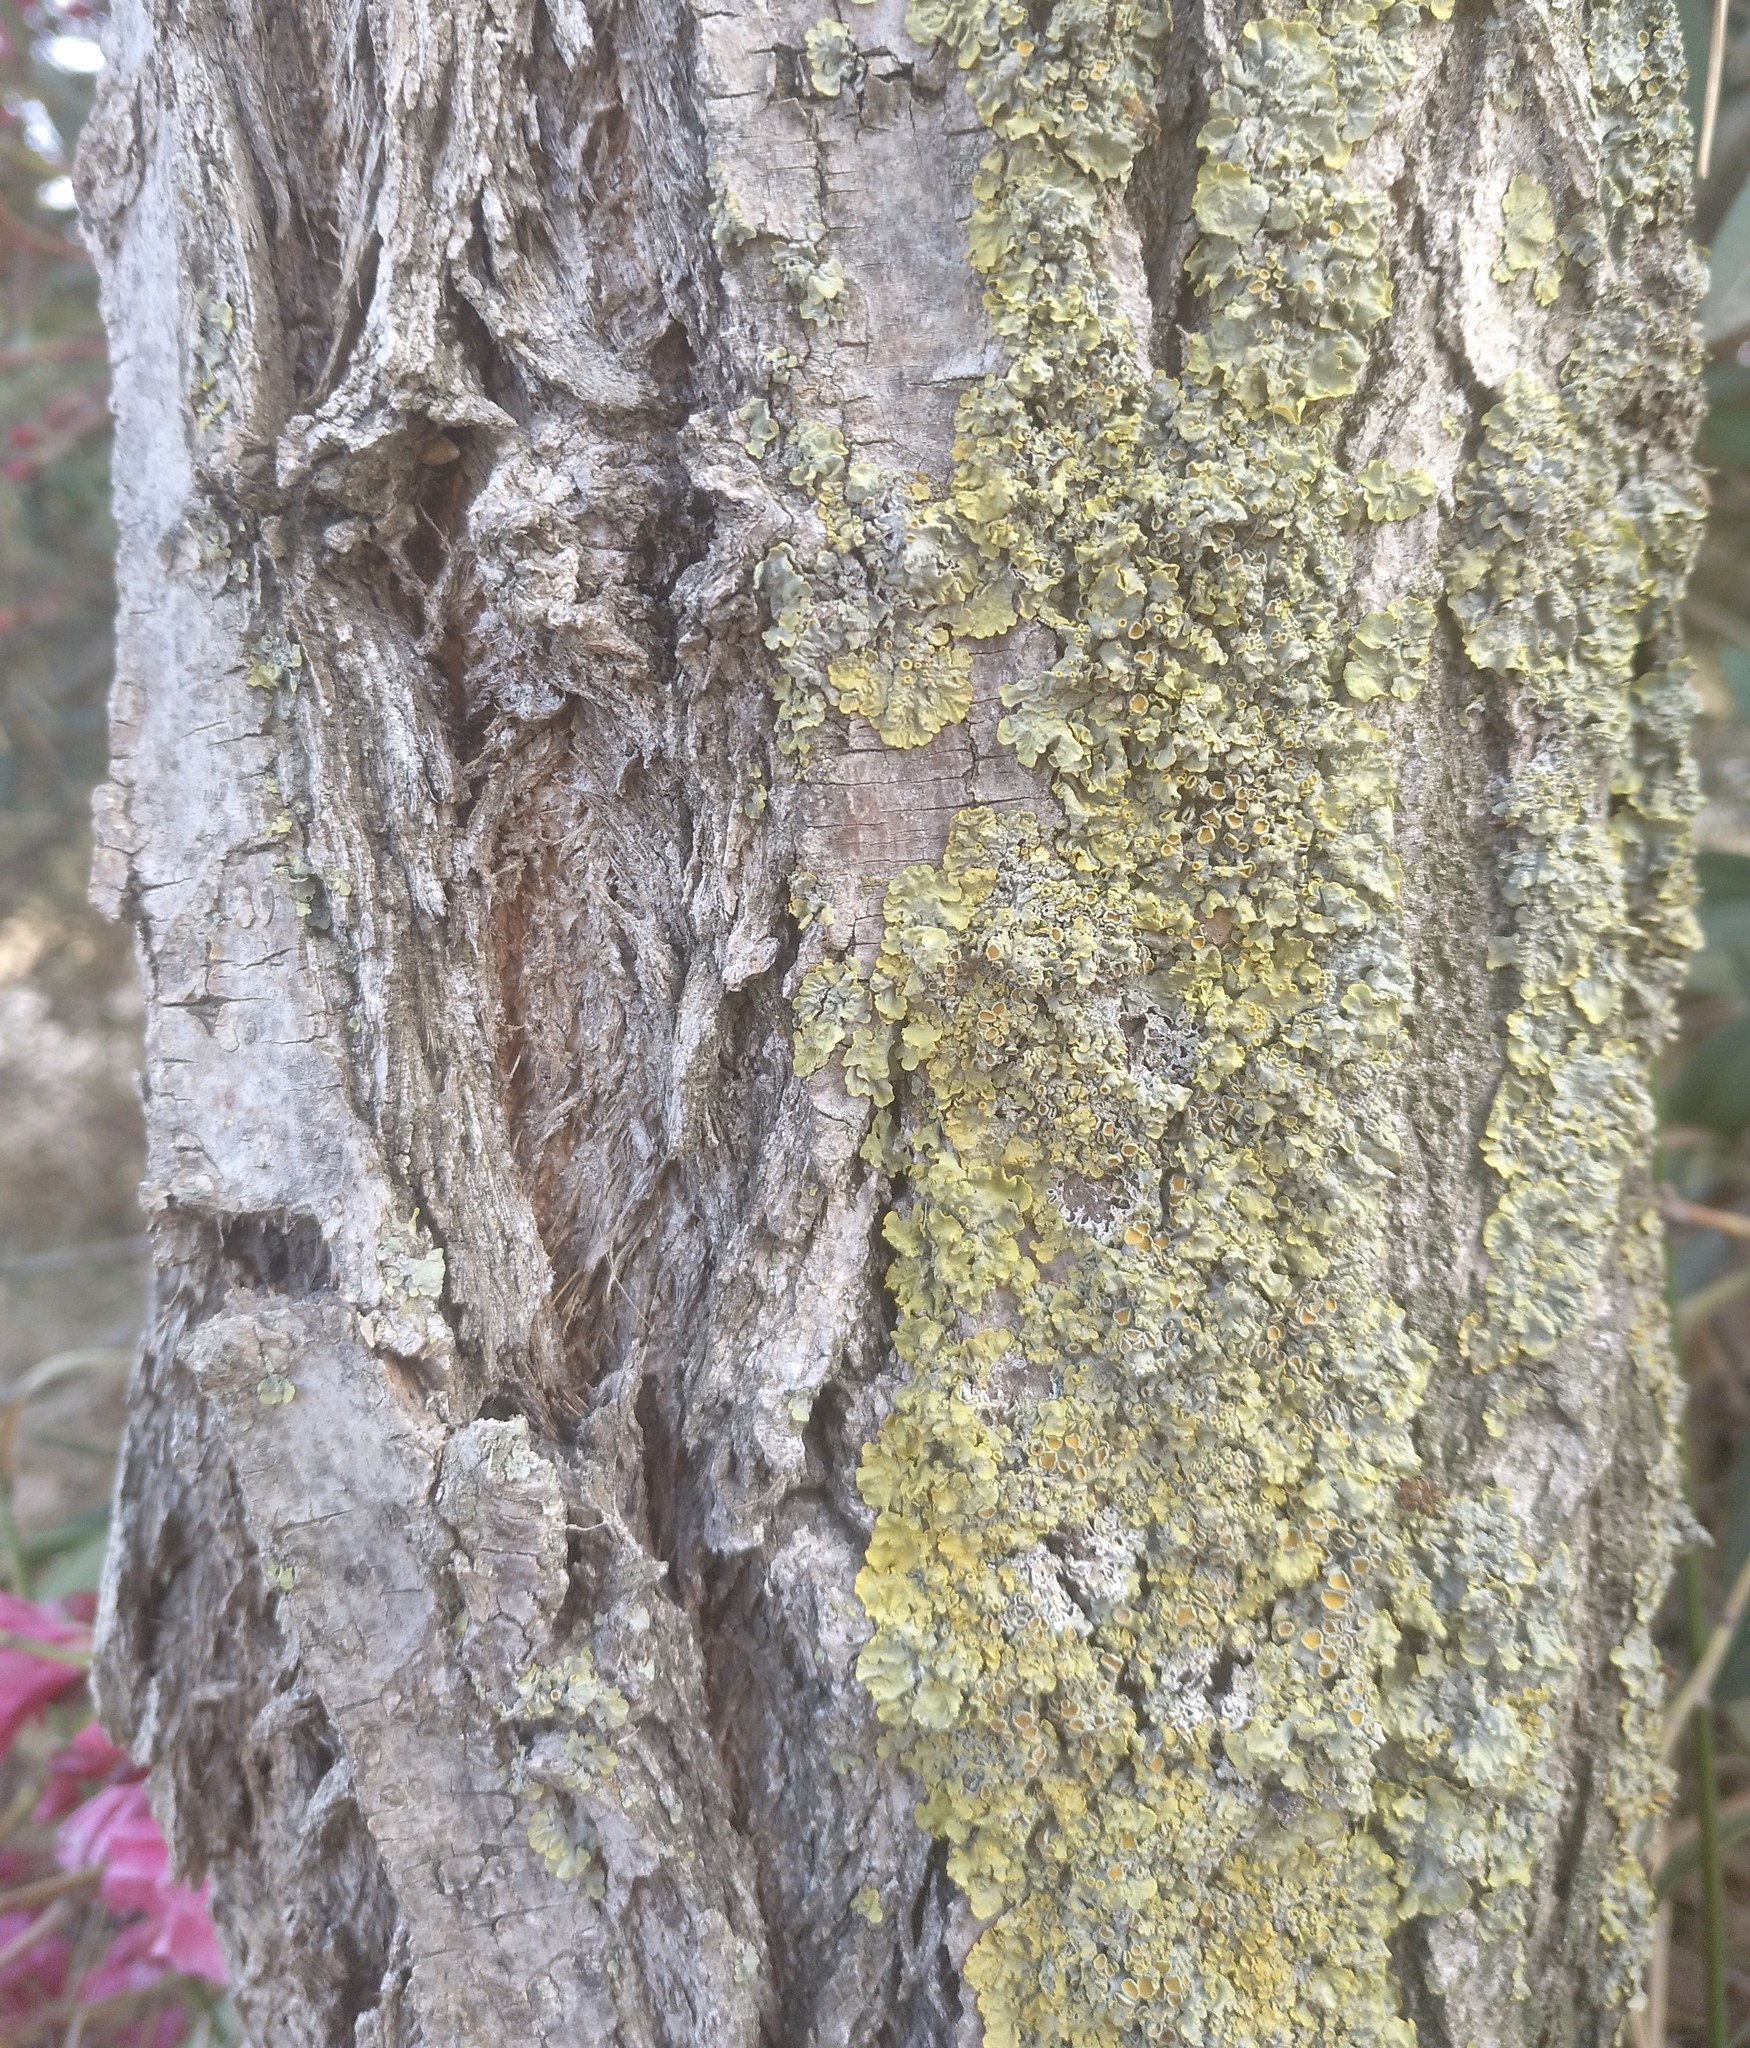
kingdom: Fungi
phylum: Ascomycota
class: Lecanoromycetes
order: Teloschistales
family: Teloschistaceae
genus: Xanthoria
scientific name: Xanthoria parietina
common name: Common orange lichen
